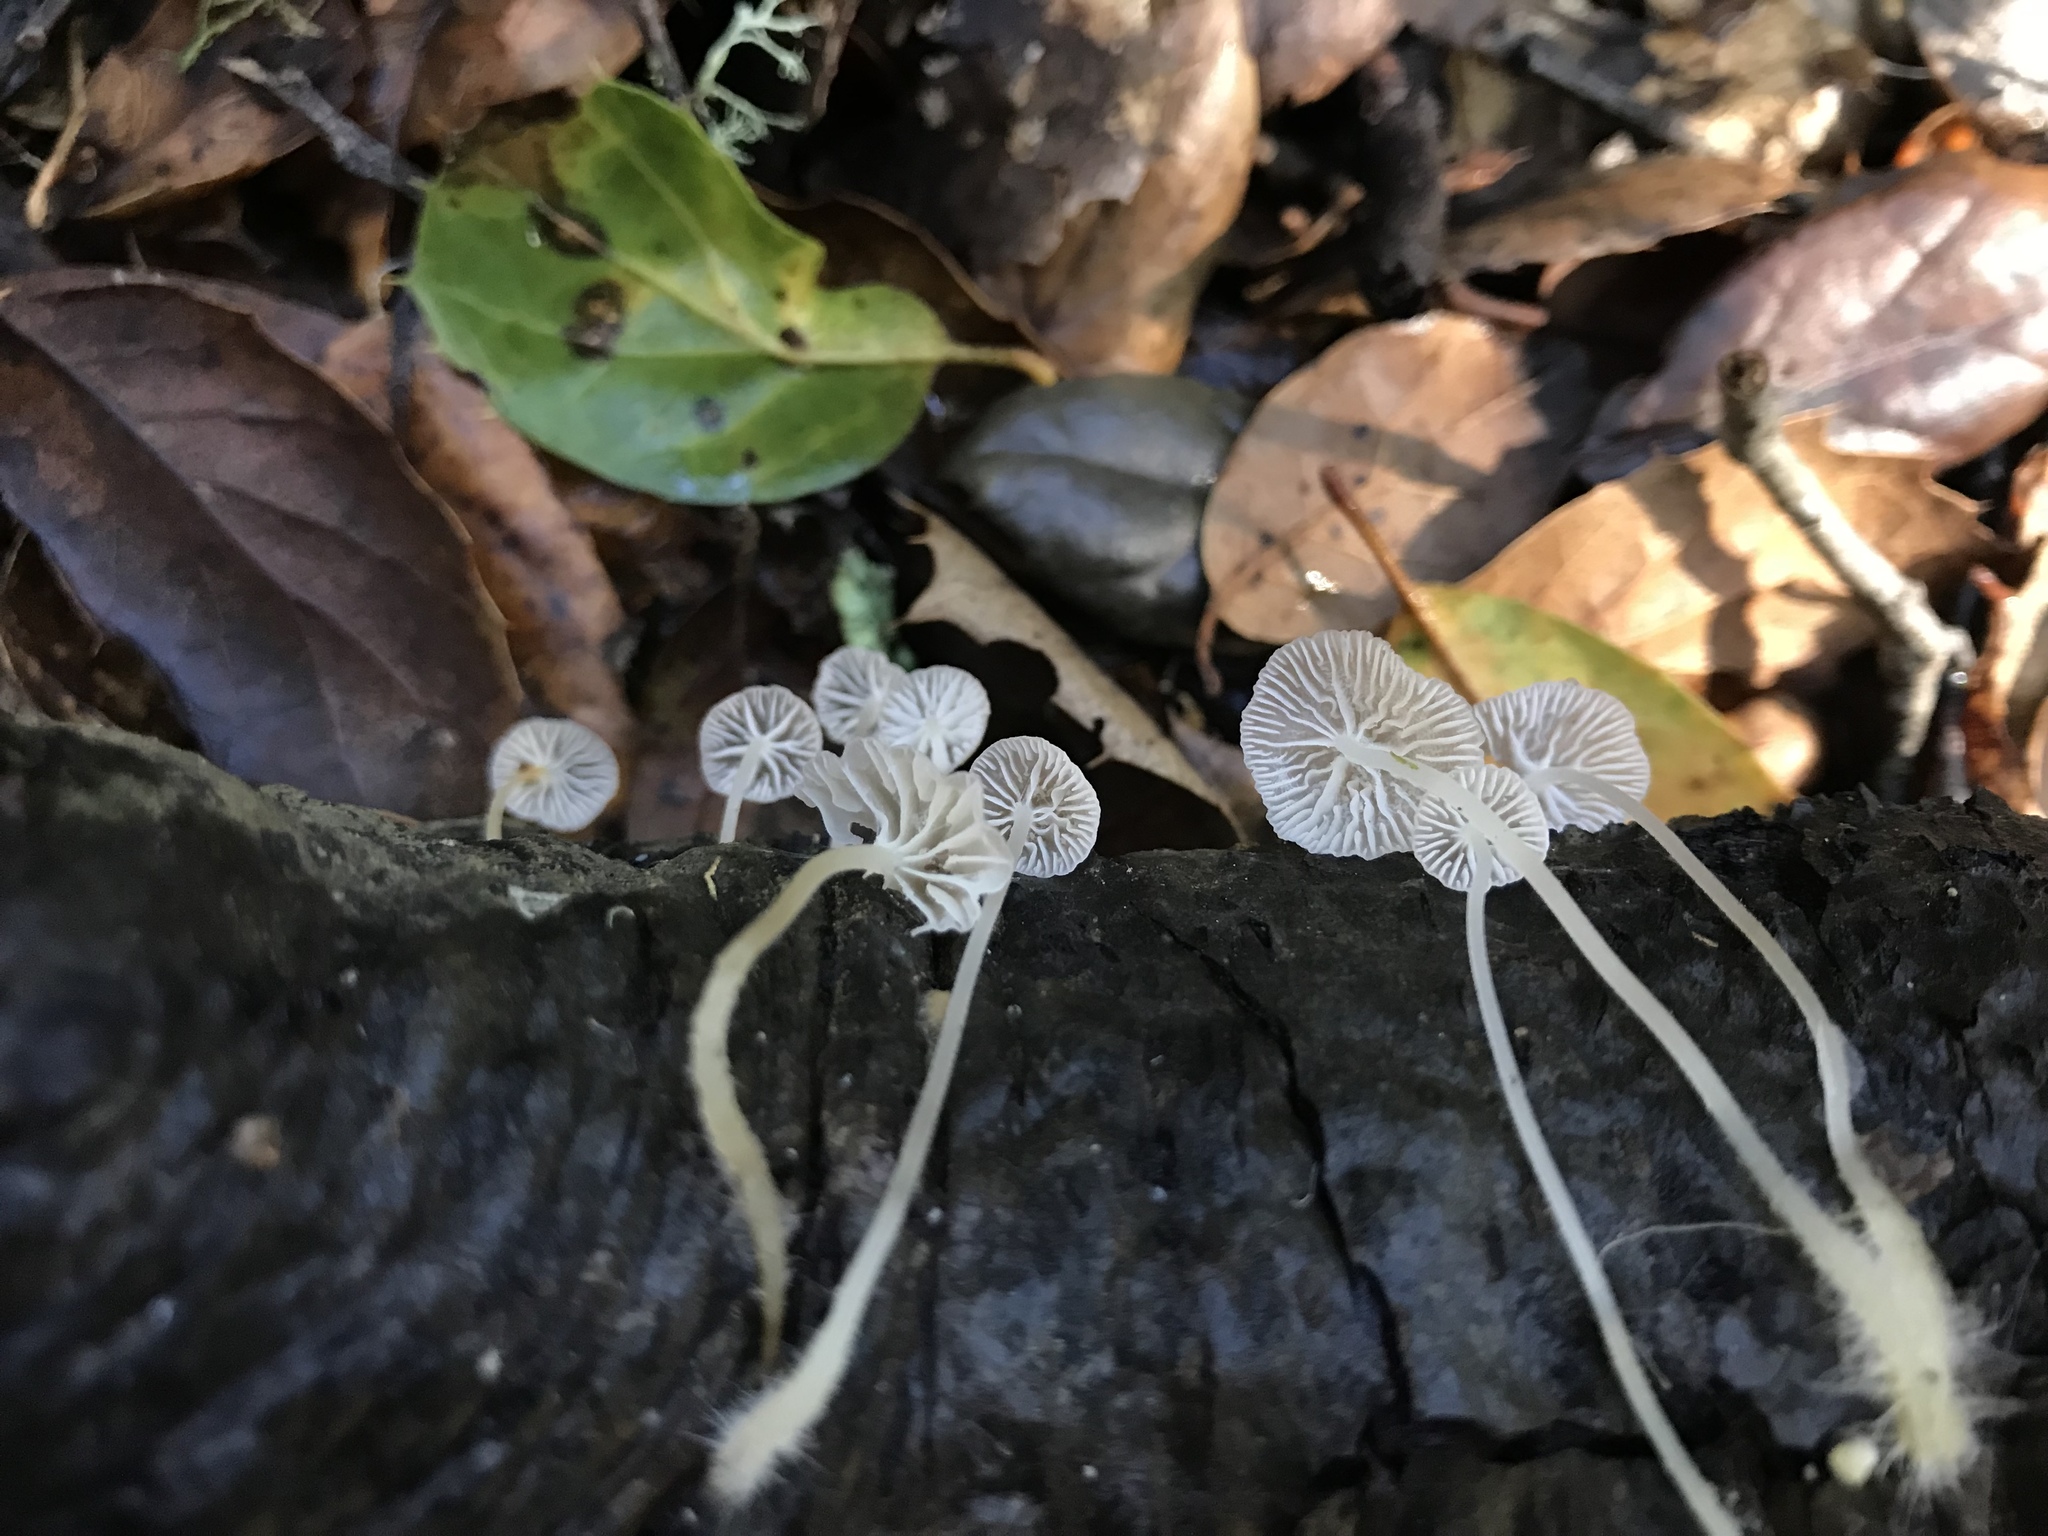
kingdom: Fungi
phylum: Basidiomycota
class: Agaricomycetes
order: Agaricales
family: Porotheleaceae
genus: Phloeomana
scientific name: Phloeomana speirea
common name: Bark bonnet
